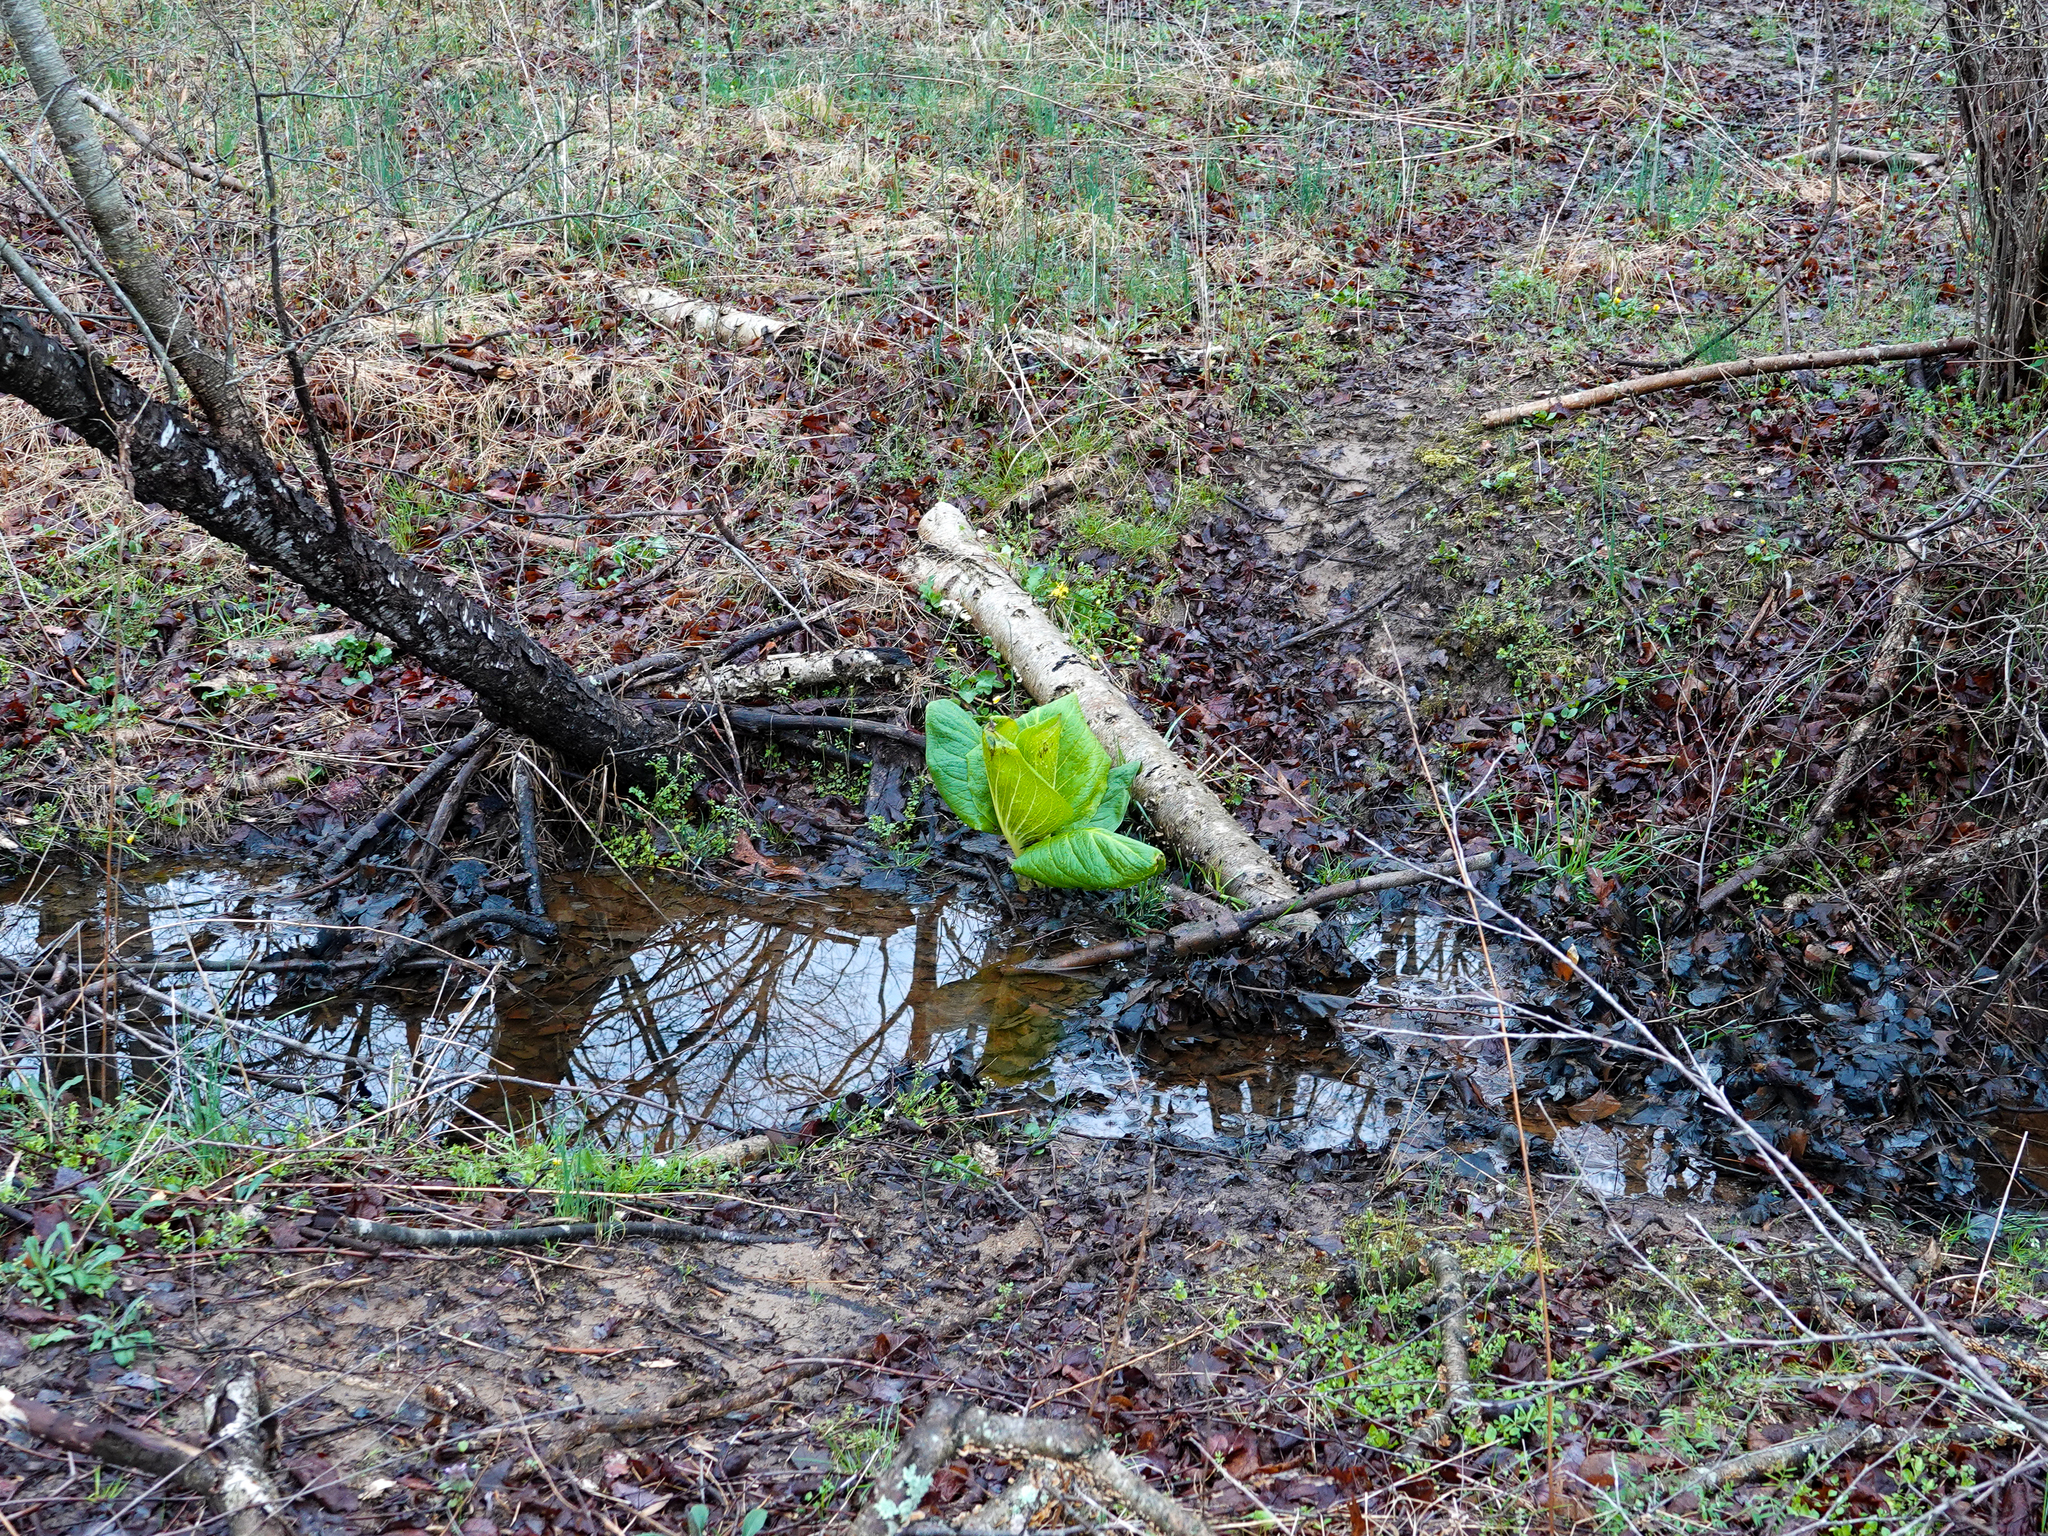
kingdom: Plantae
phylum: Tracheophyta
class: Liliopsida
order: Alismatales
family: Araceae
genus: Symplocarpus
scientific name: Symplocarpus foetidus
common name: Eastern skunk cabbage
